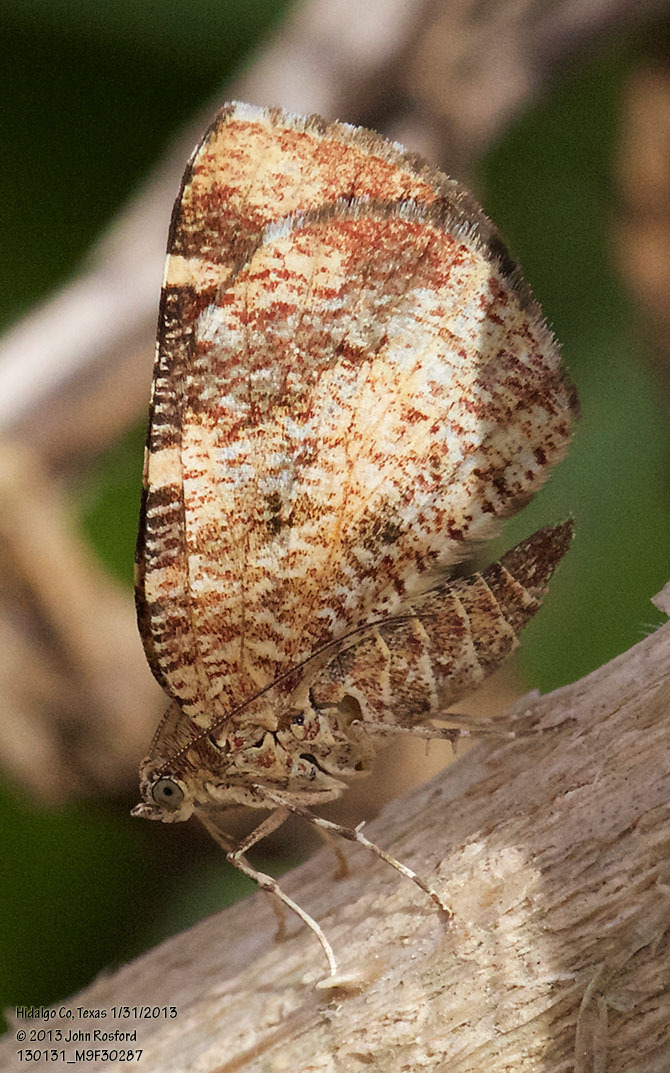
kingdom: Animalia
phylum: Arthropoda
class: Insecta
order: Lepidoptera
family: Geometridae
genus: Heterusia
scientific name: Heterusia atalantata
